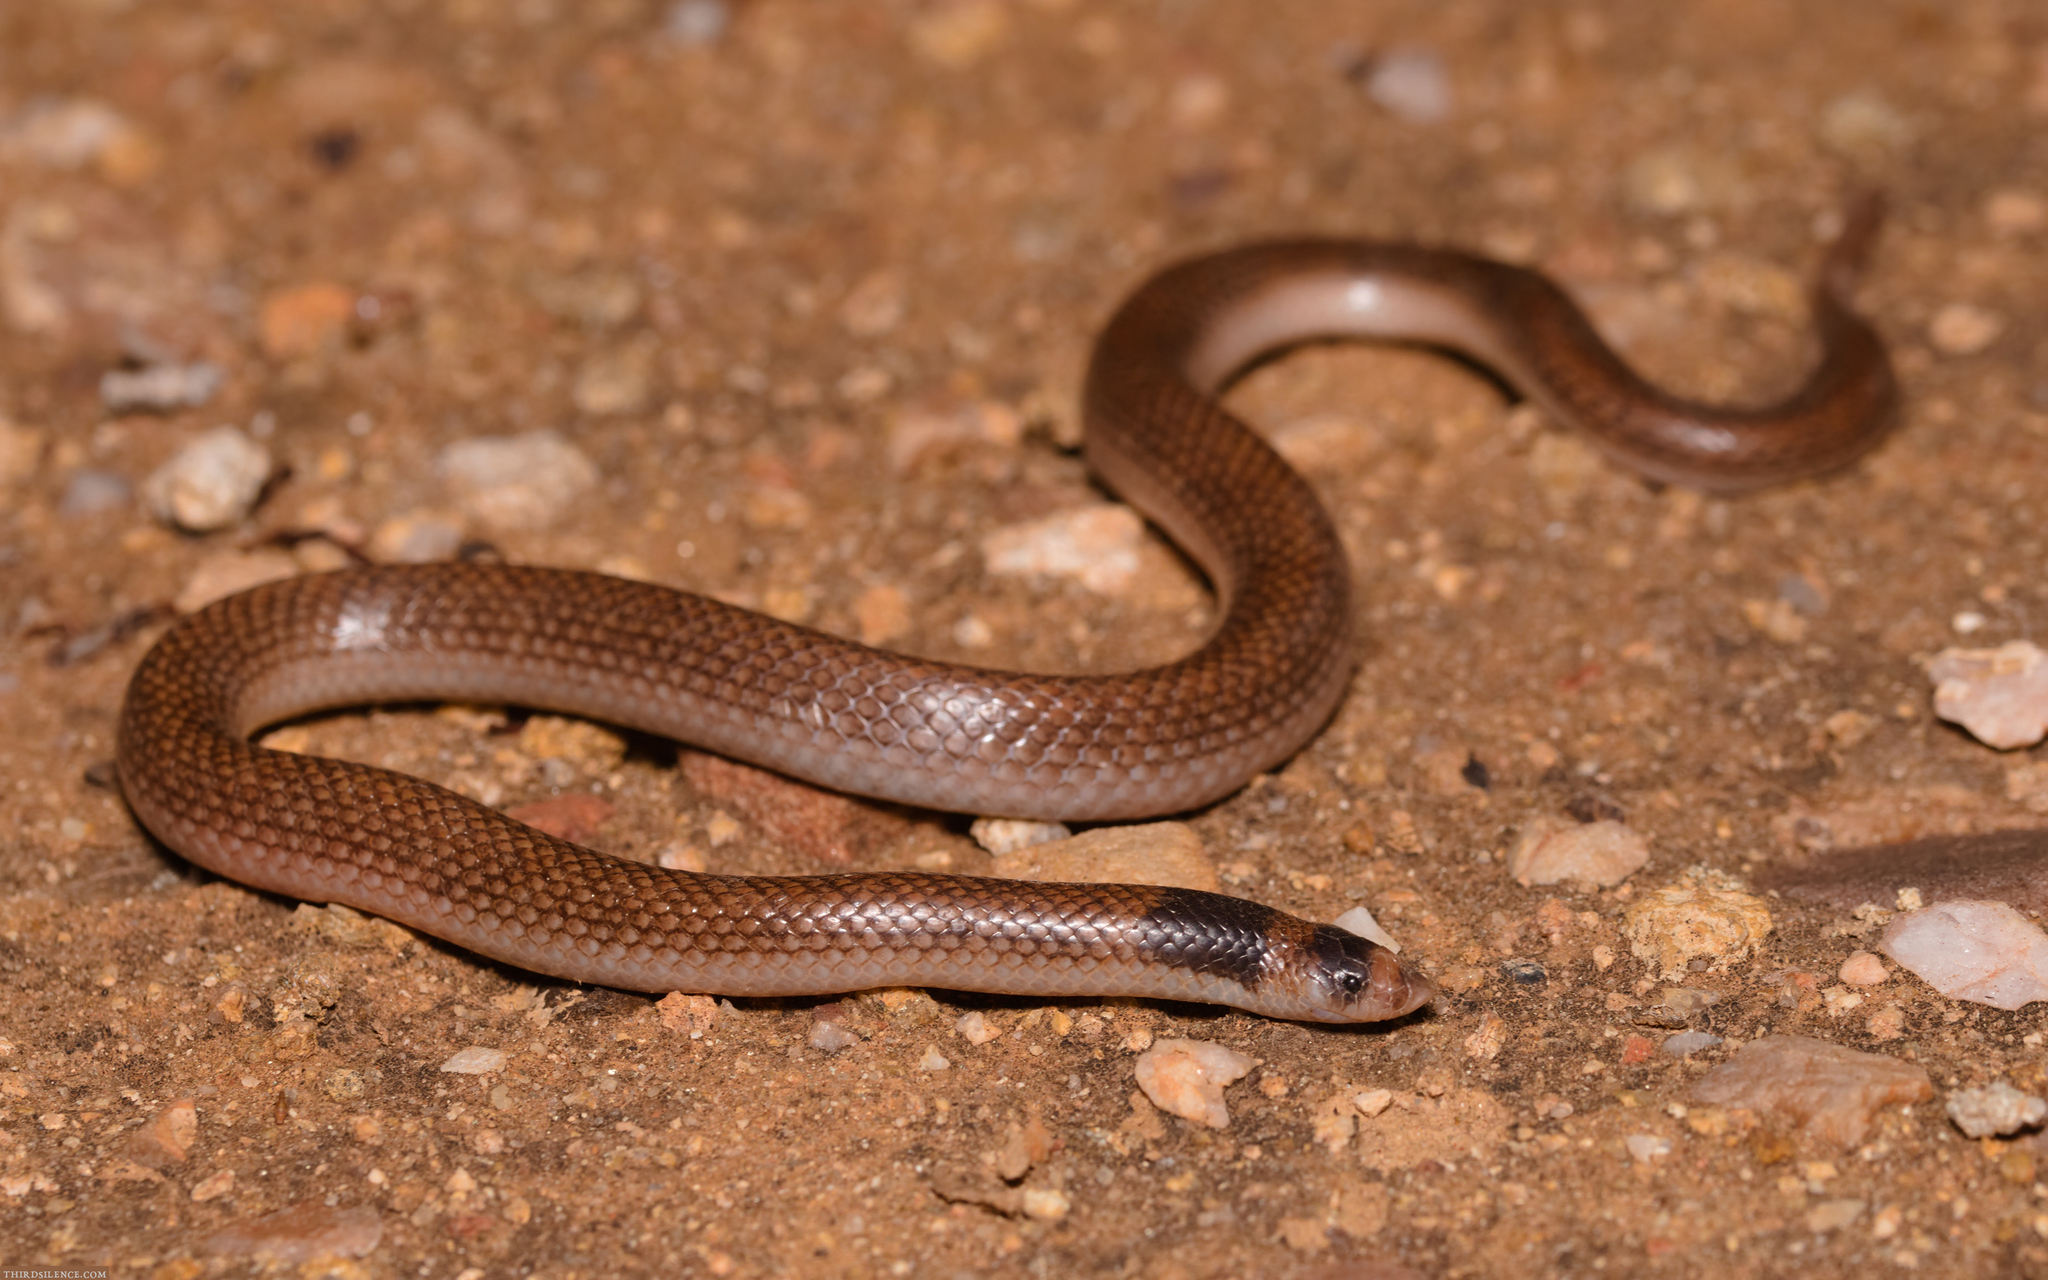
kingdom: Animalia
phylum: Chordata
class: Squamata
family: Elapidae
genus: Brachyurophis
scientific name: Brachyurophis incinctus
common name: Unbanded shovel-nosed snake
